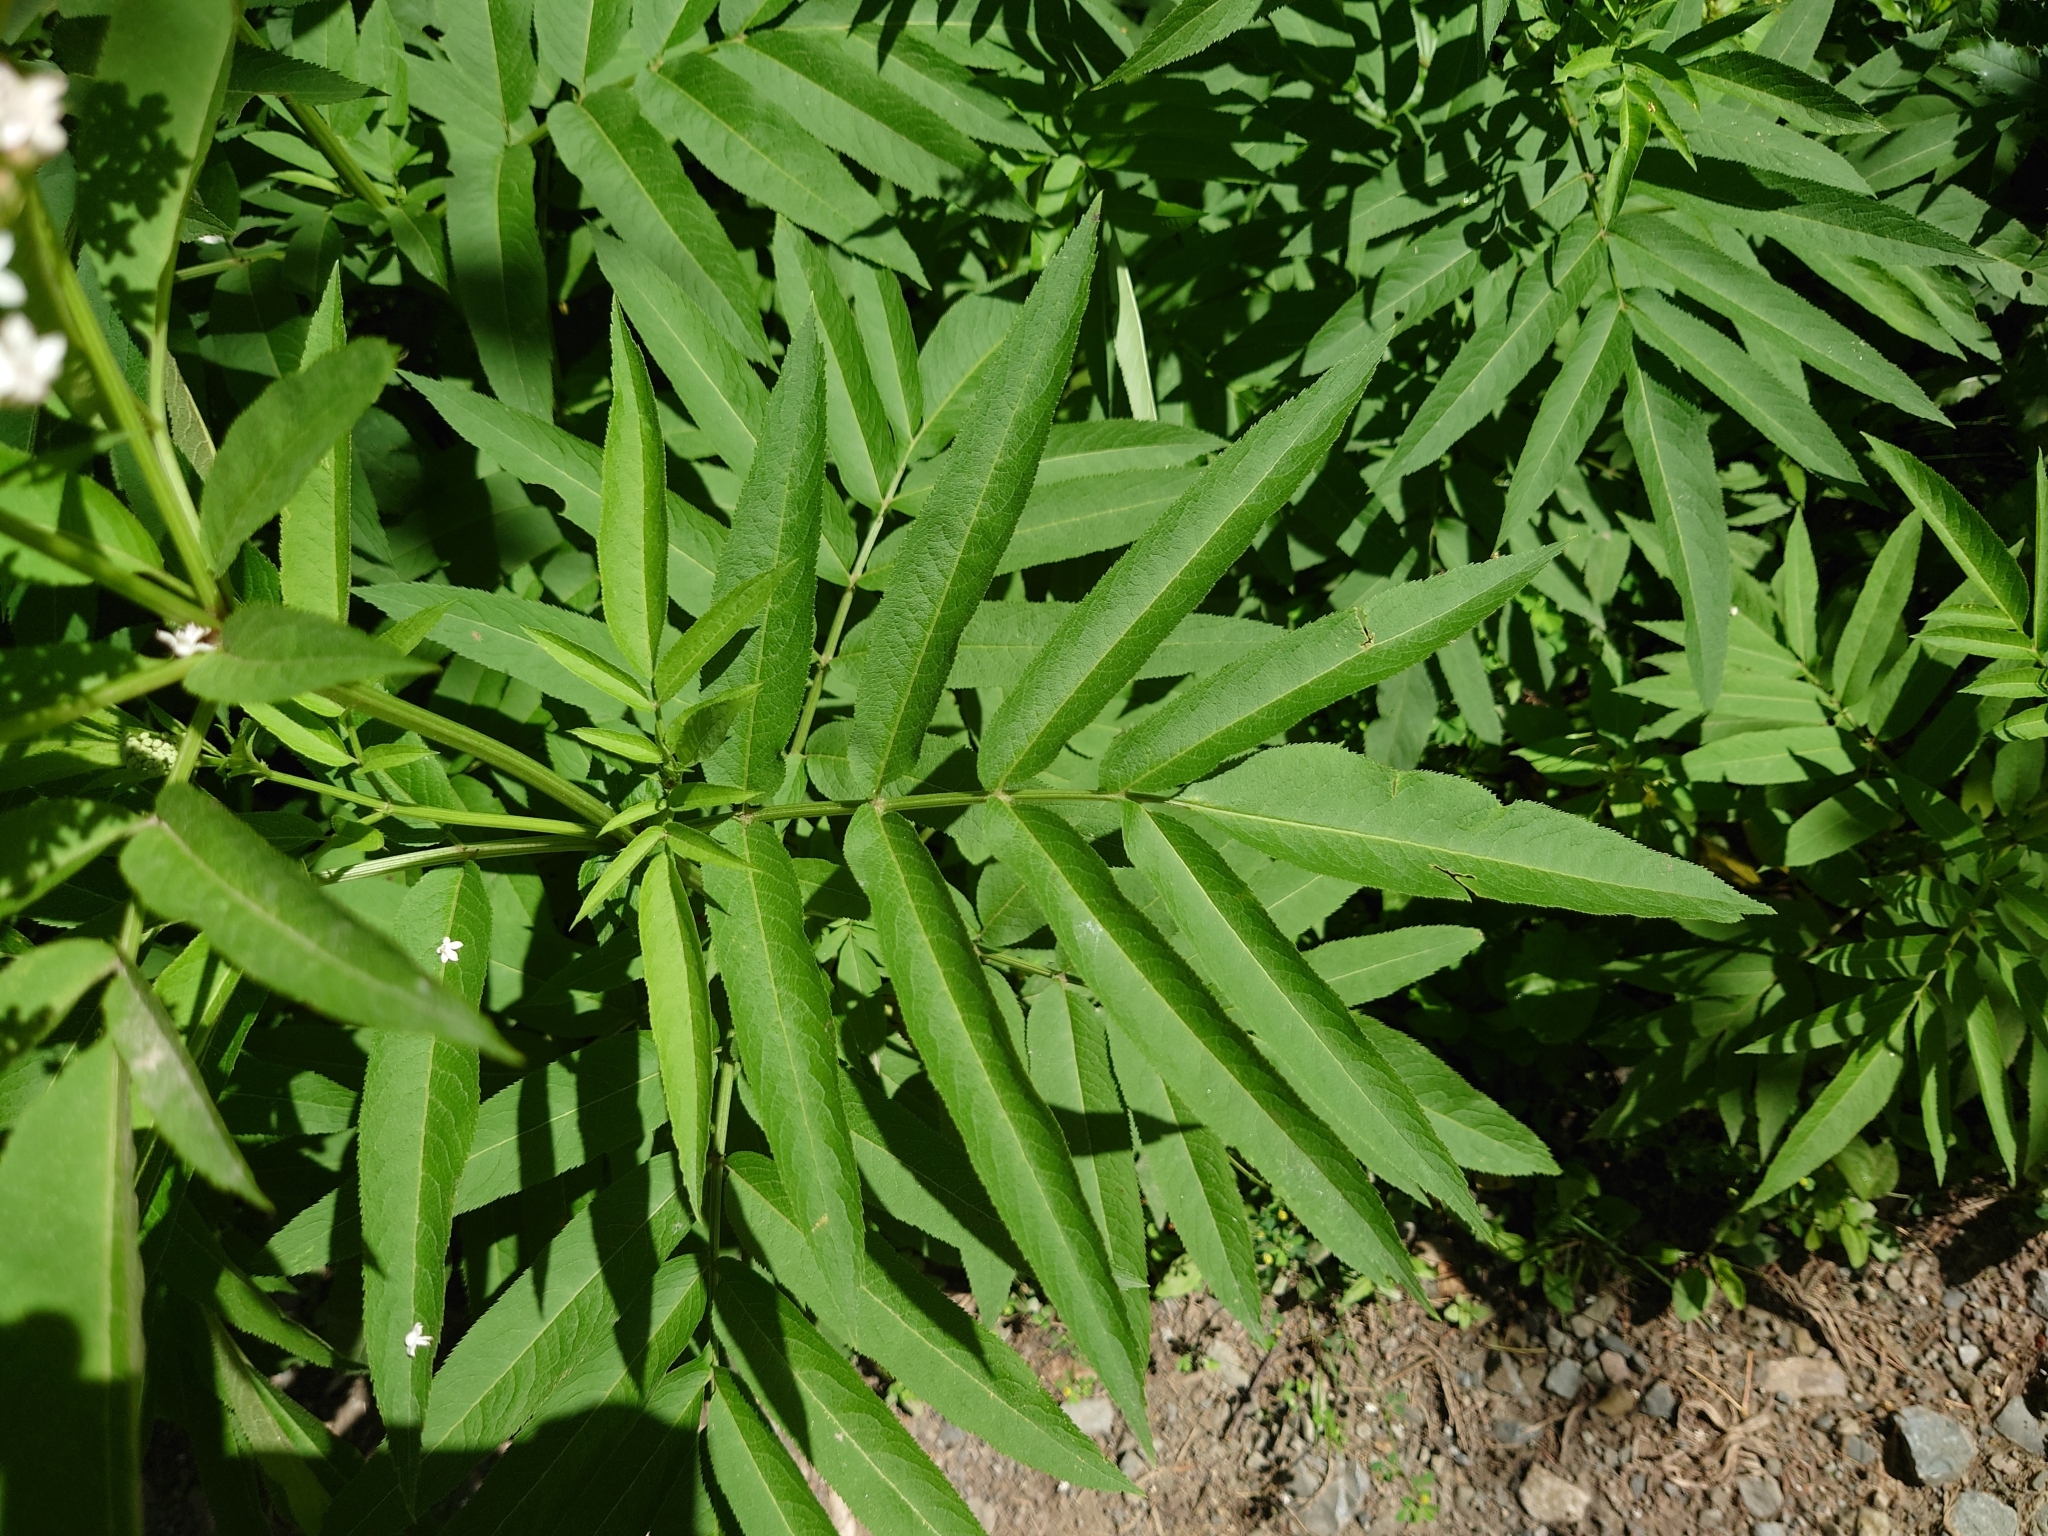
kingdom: Plantae
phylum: Tracheophyta
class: Magnoliopsida
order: Dipsacales
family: Viburnaceae
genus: Sambucus
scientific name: Sambucus ebulus
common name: Dwarf elder
